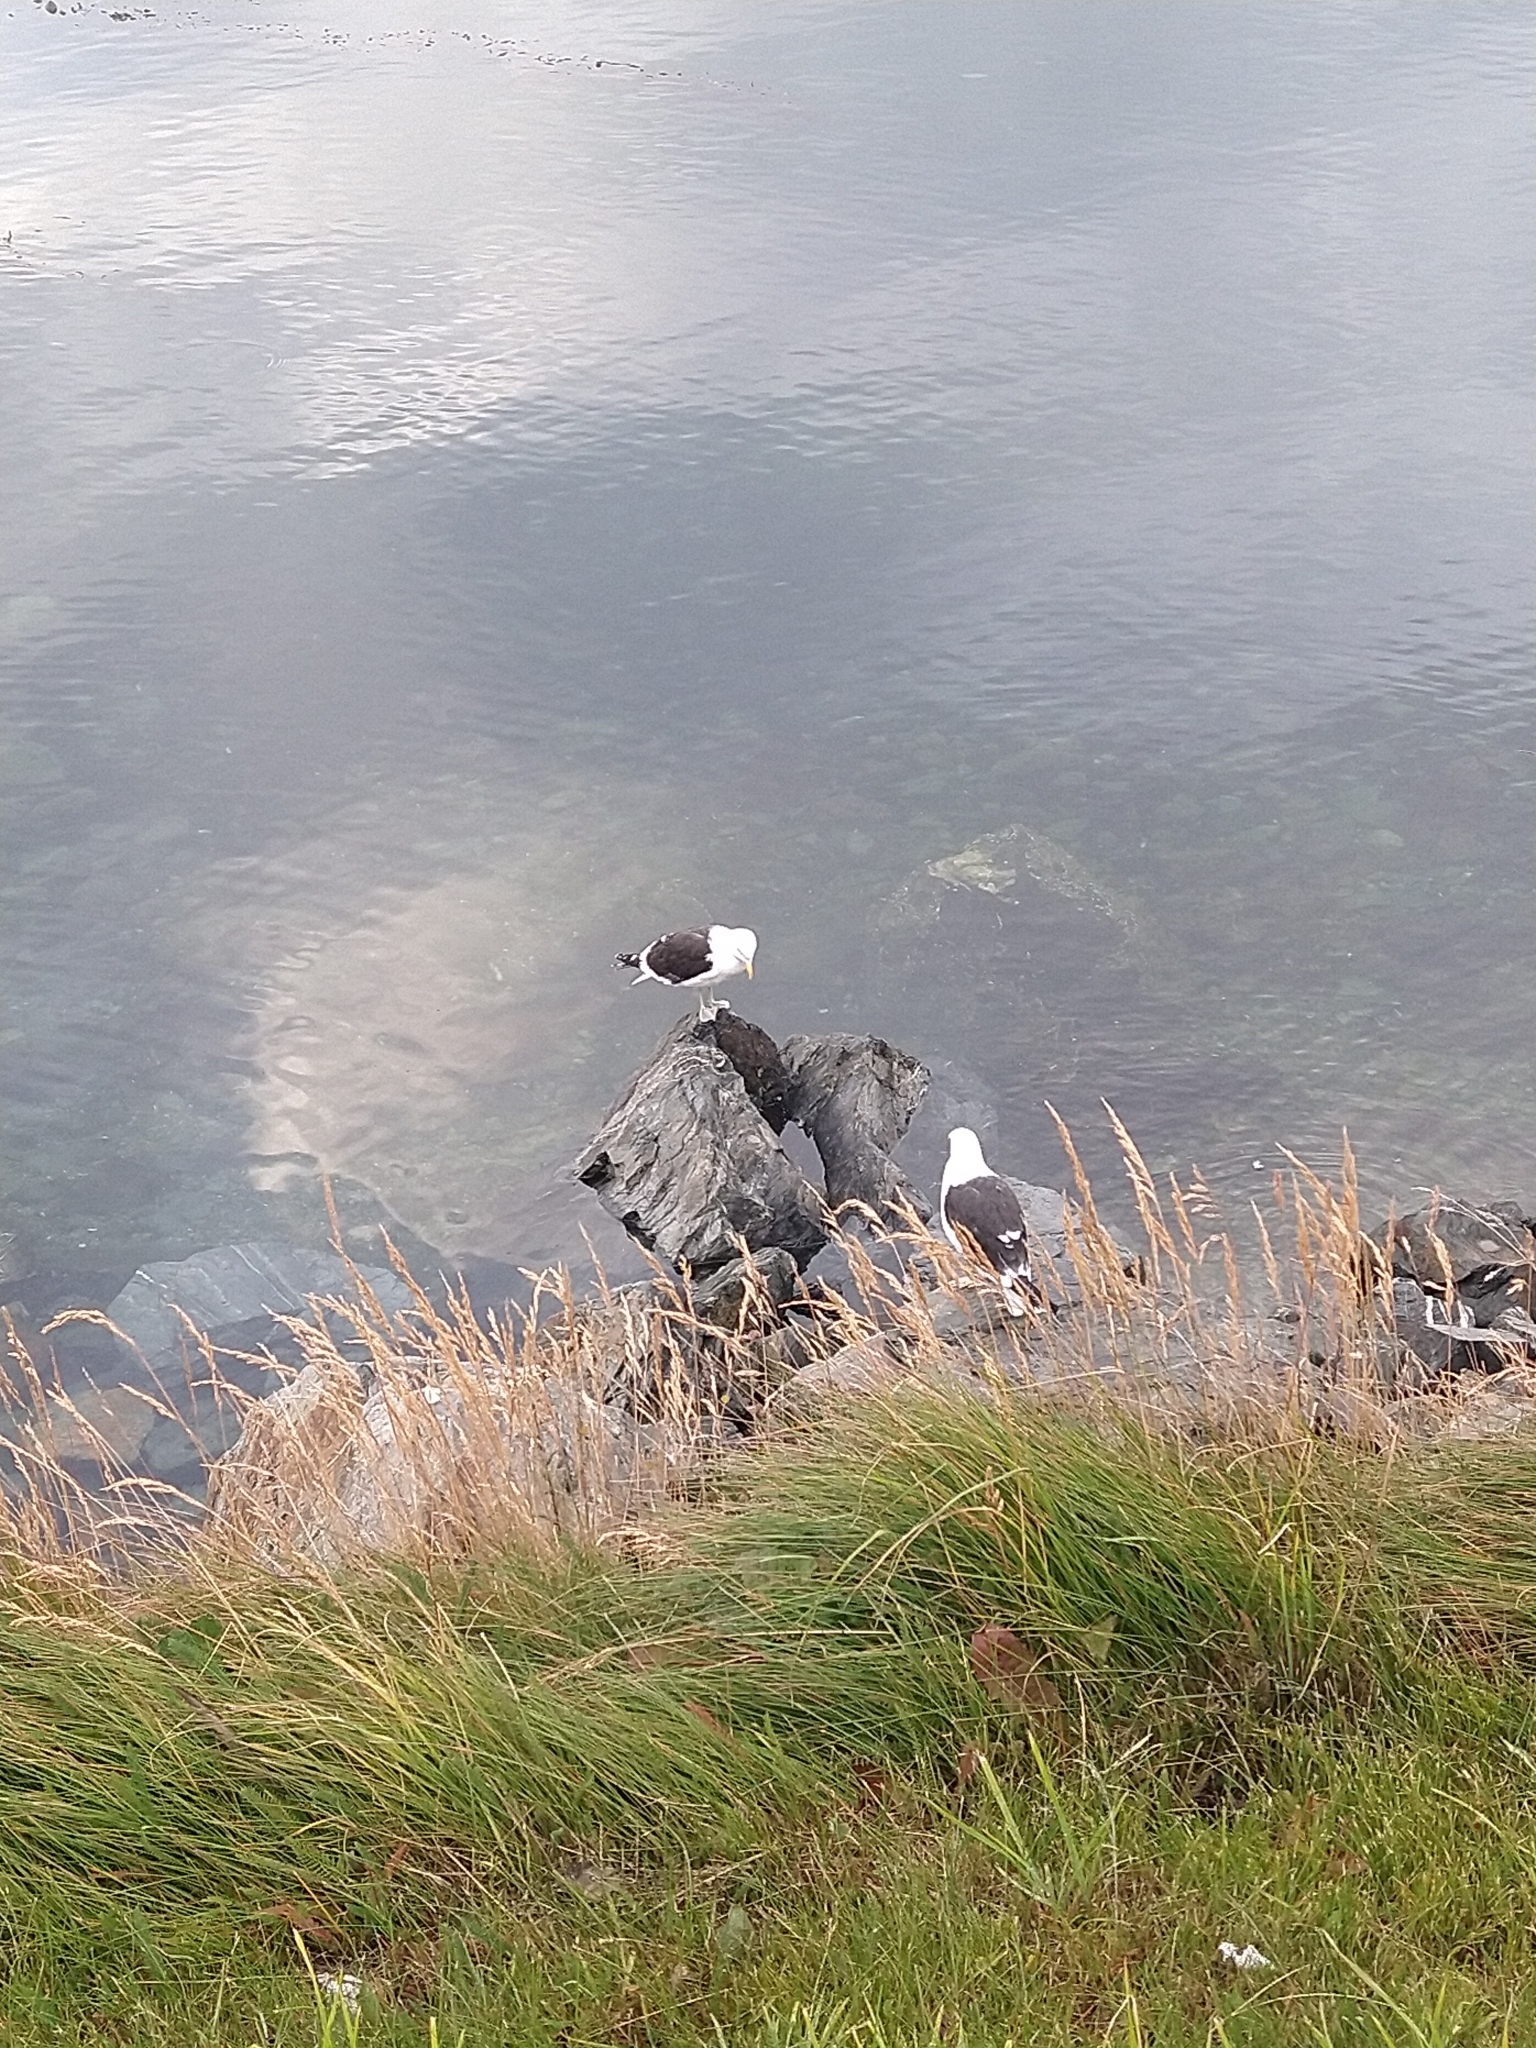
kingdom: Animalia
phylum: Chordata
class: Aves
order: Charadriiformes
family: Laridae
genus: Larus
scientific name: Larus dominicanus
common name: Kelp gull
